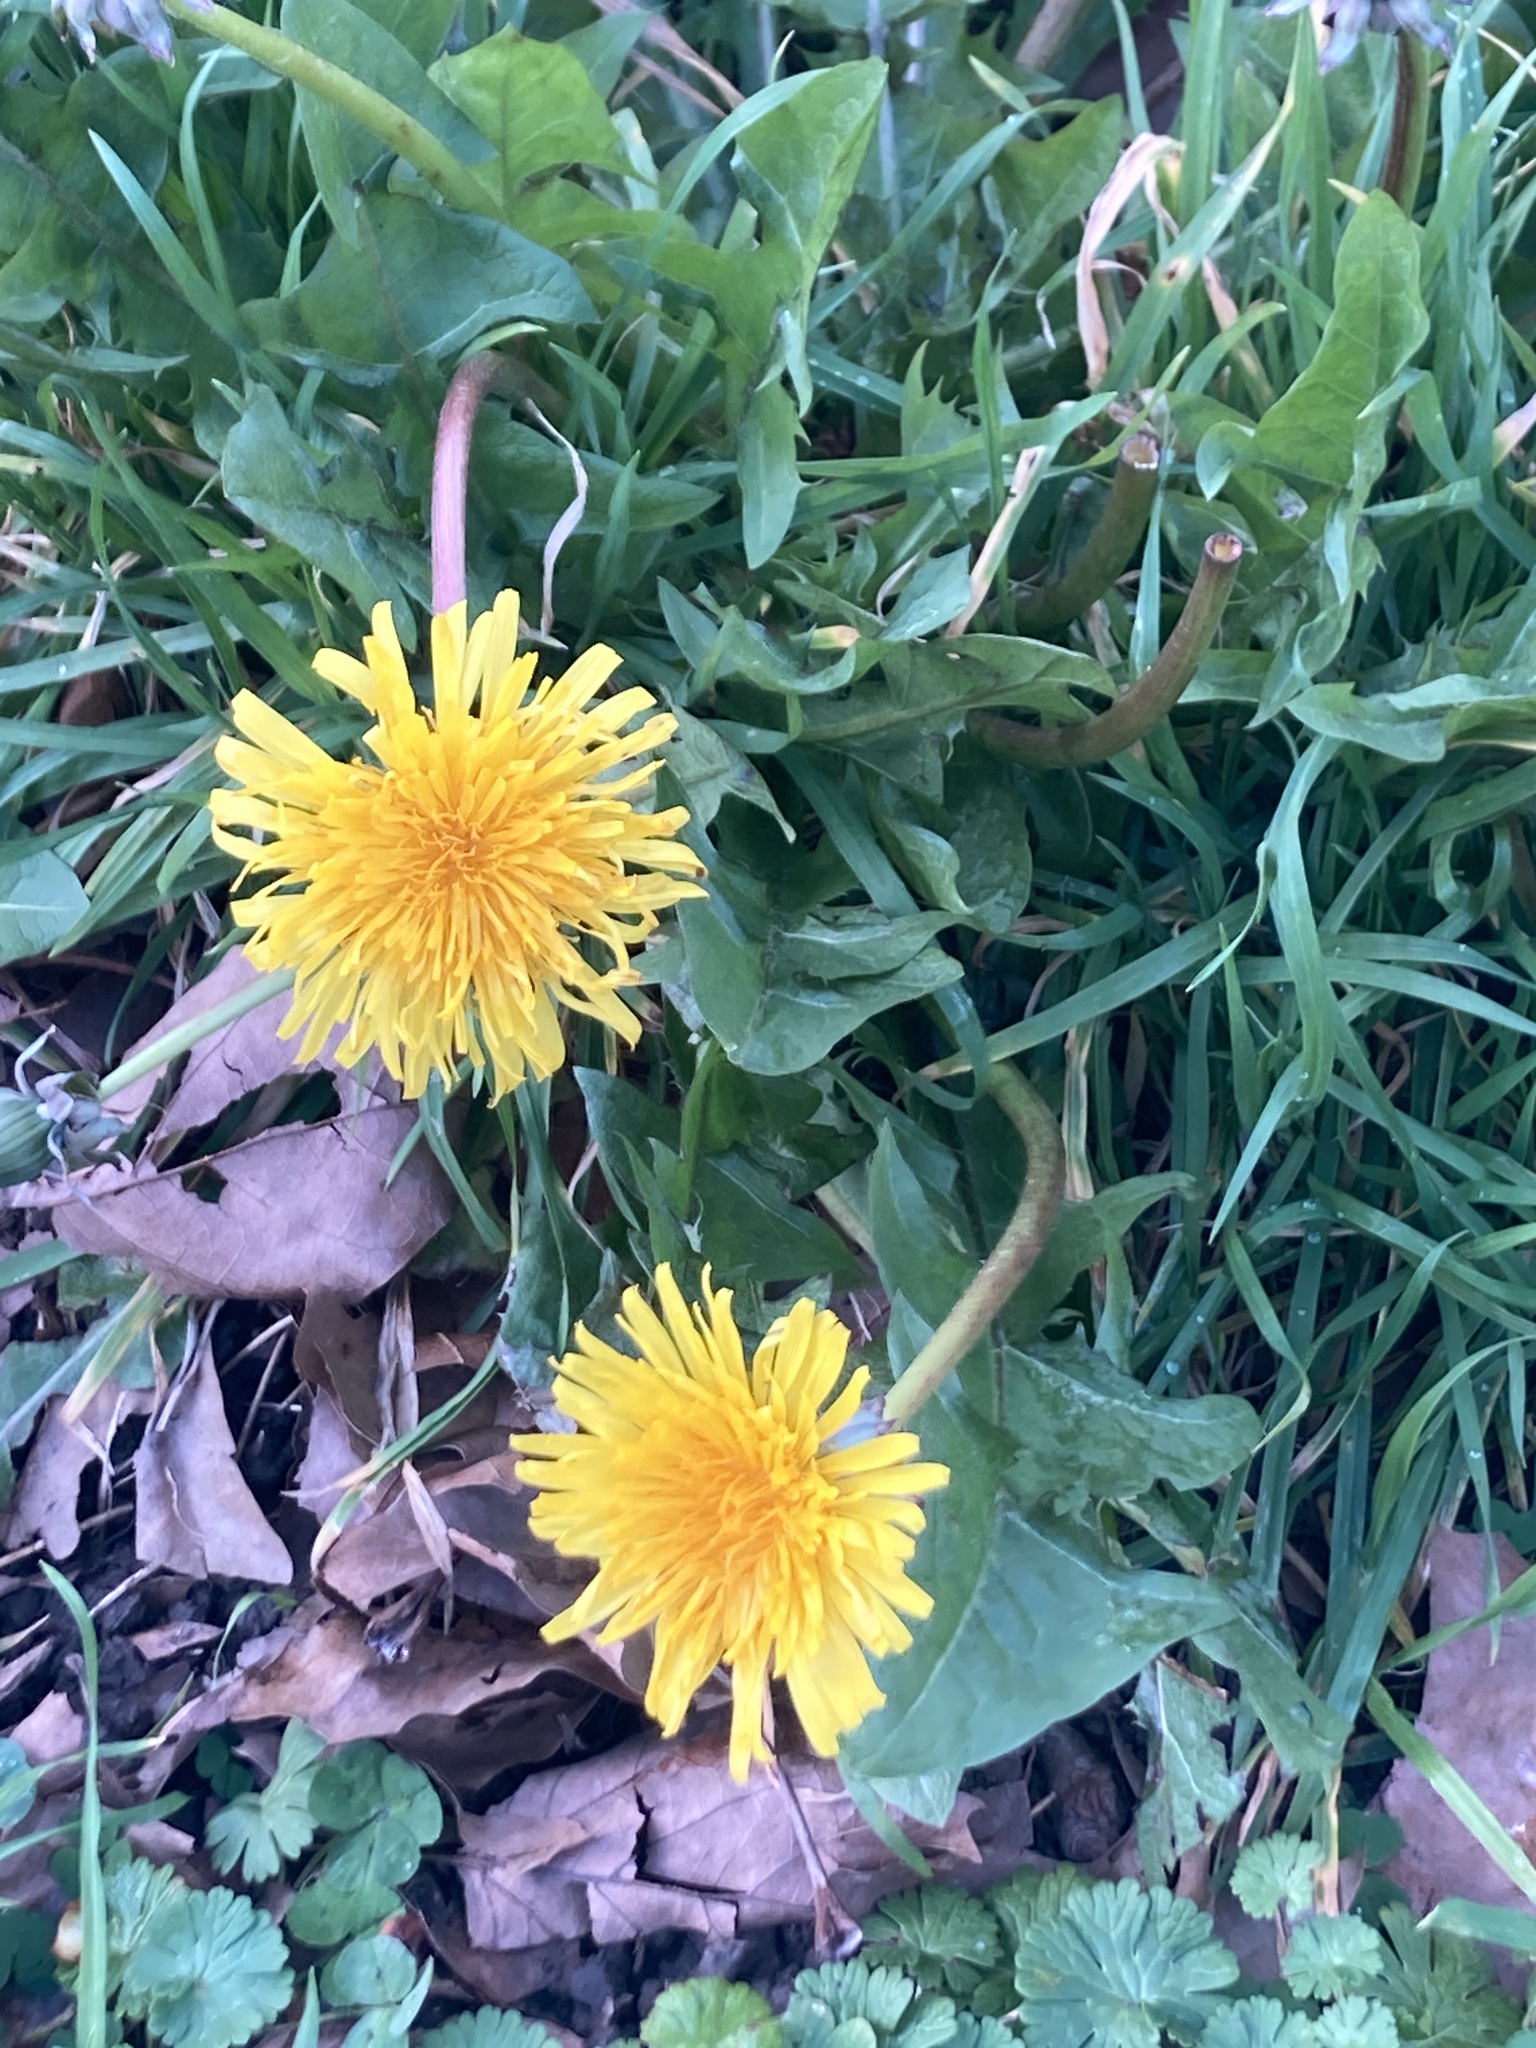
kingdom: Plantae
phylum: Tracheophyta
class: Magnoliopsida
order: Asterales
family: Asteraceae
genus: Taraxacum
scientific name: Taraxacum officinale
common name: Common dandelion
